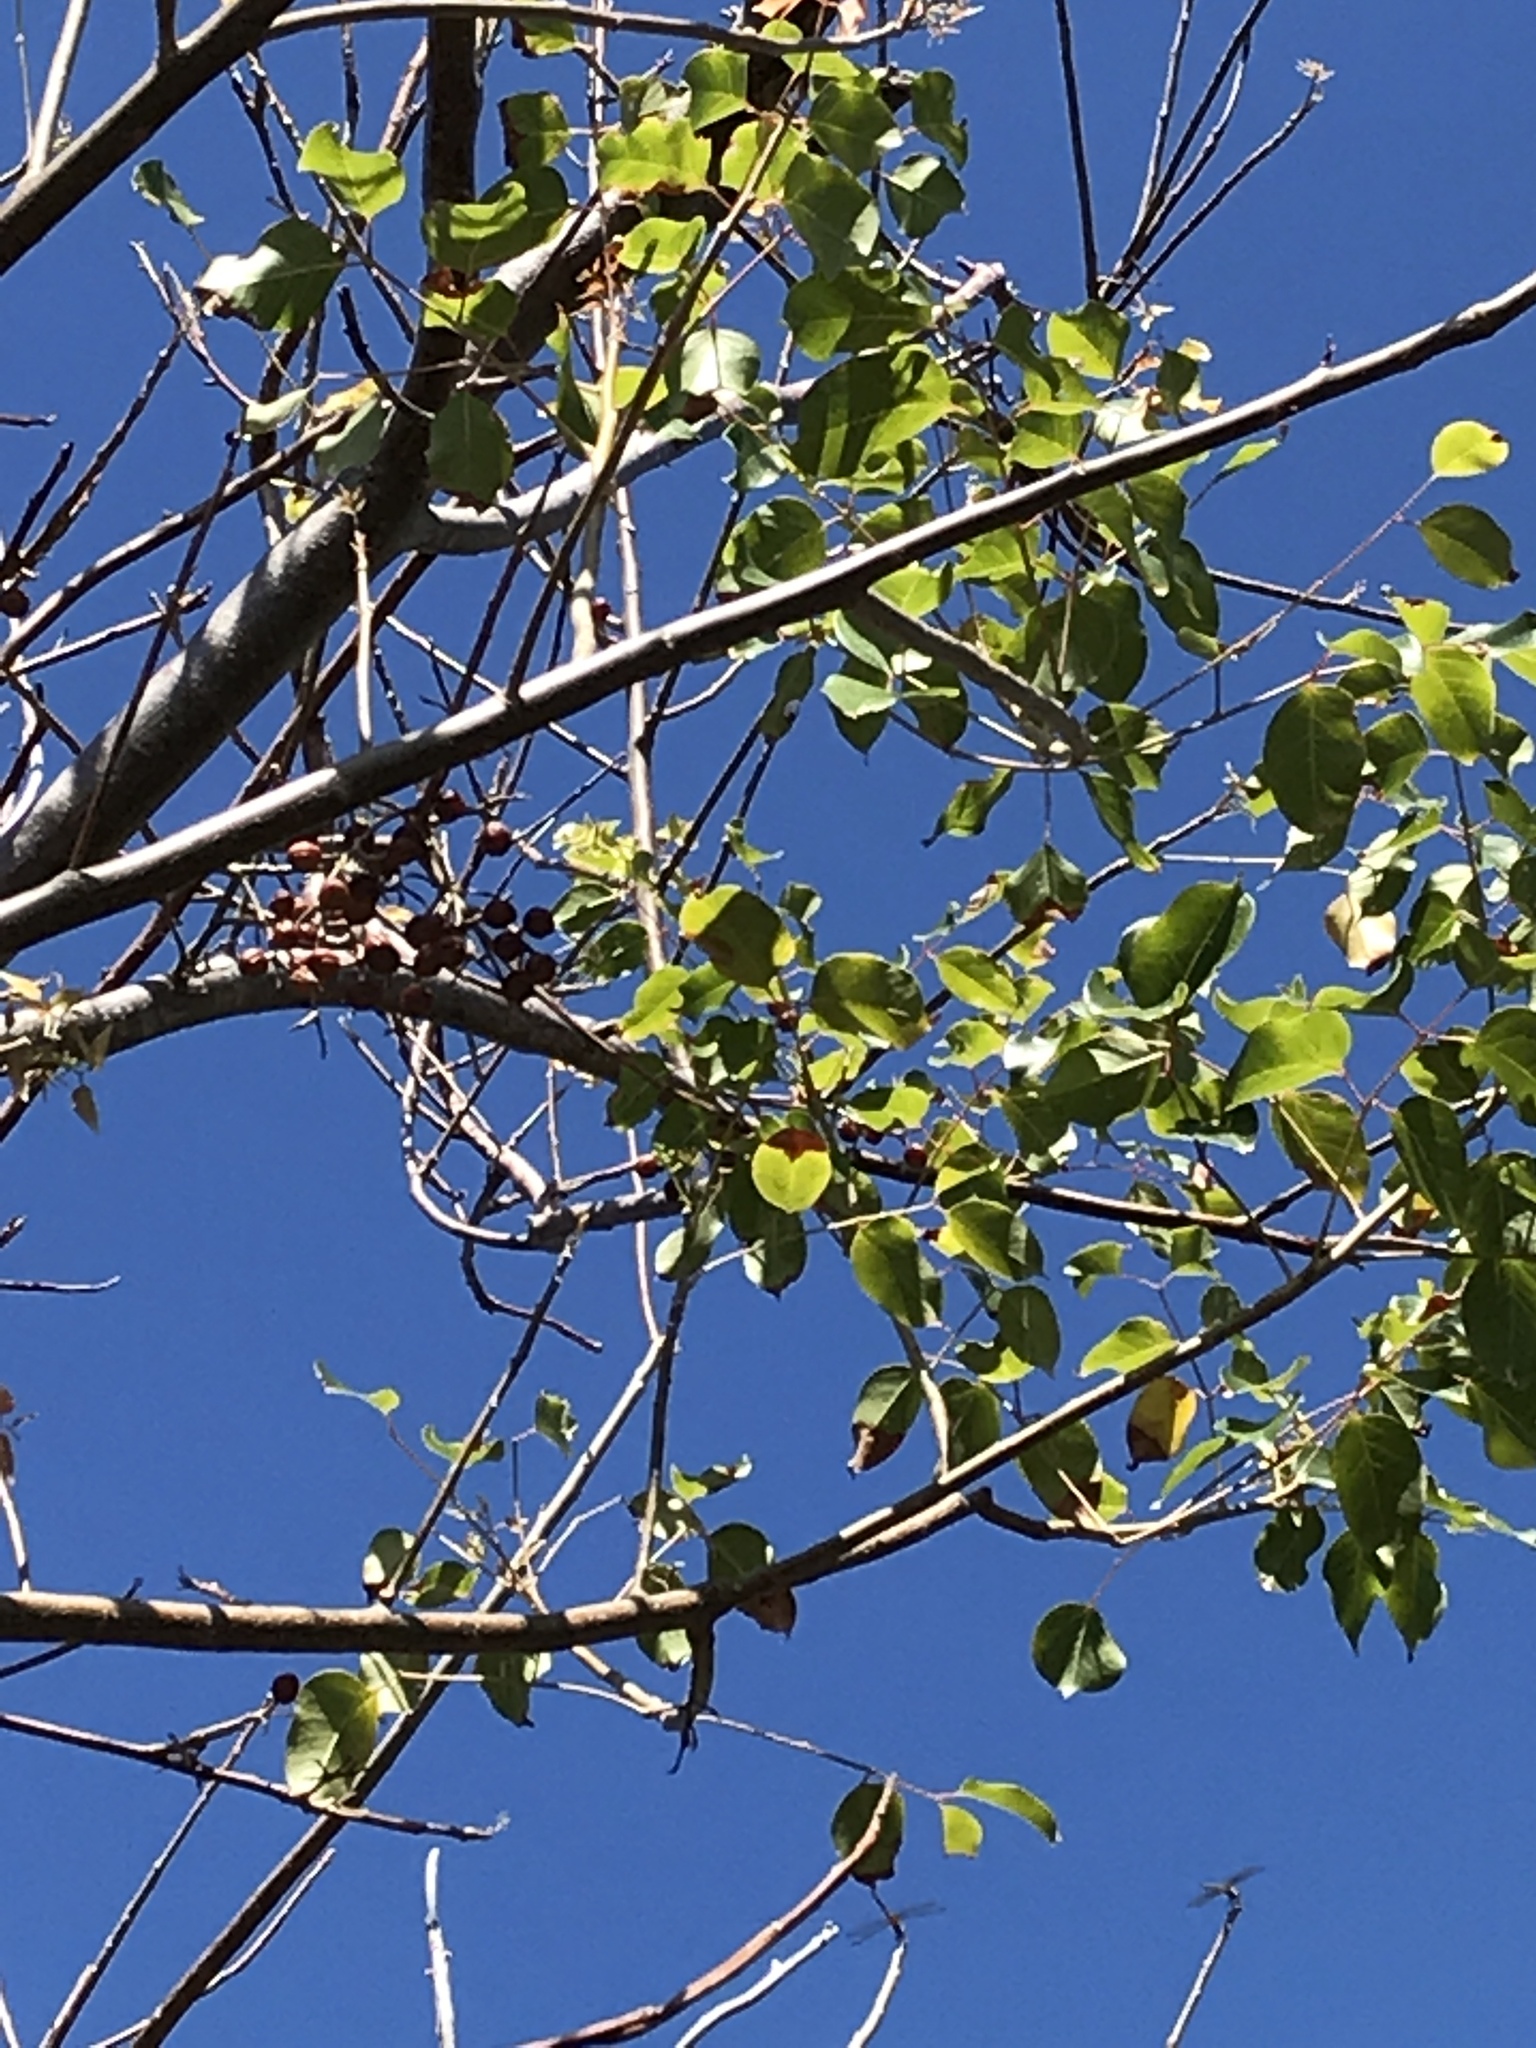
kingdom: Plantae
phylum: Tracheophyta
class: Magnoliopsida
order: Sapindales
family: Burseraceae
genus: Bursera
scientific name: Bursera simaruba
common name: Turpentine tree
